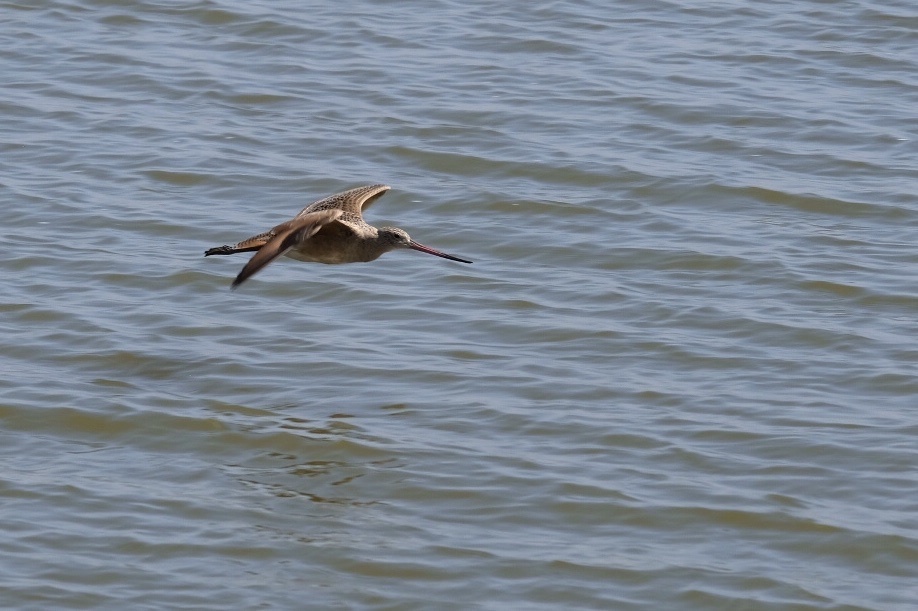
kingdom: Animalia
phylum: Chordata
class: Aves
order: Charadriiformes
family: Scolopacidae
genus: Limosa
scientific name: Limosa fedoa
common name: Marbled godwit
